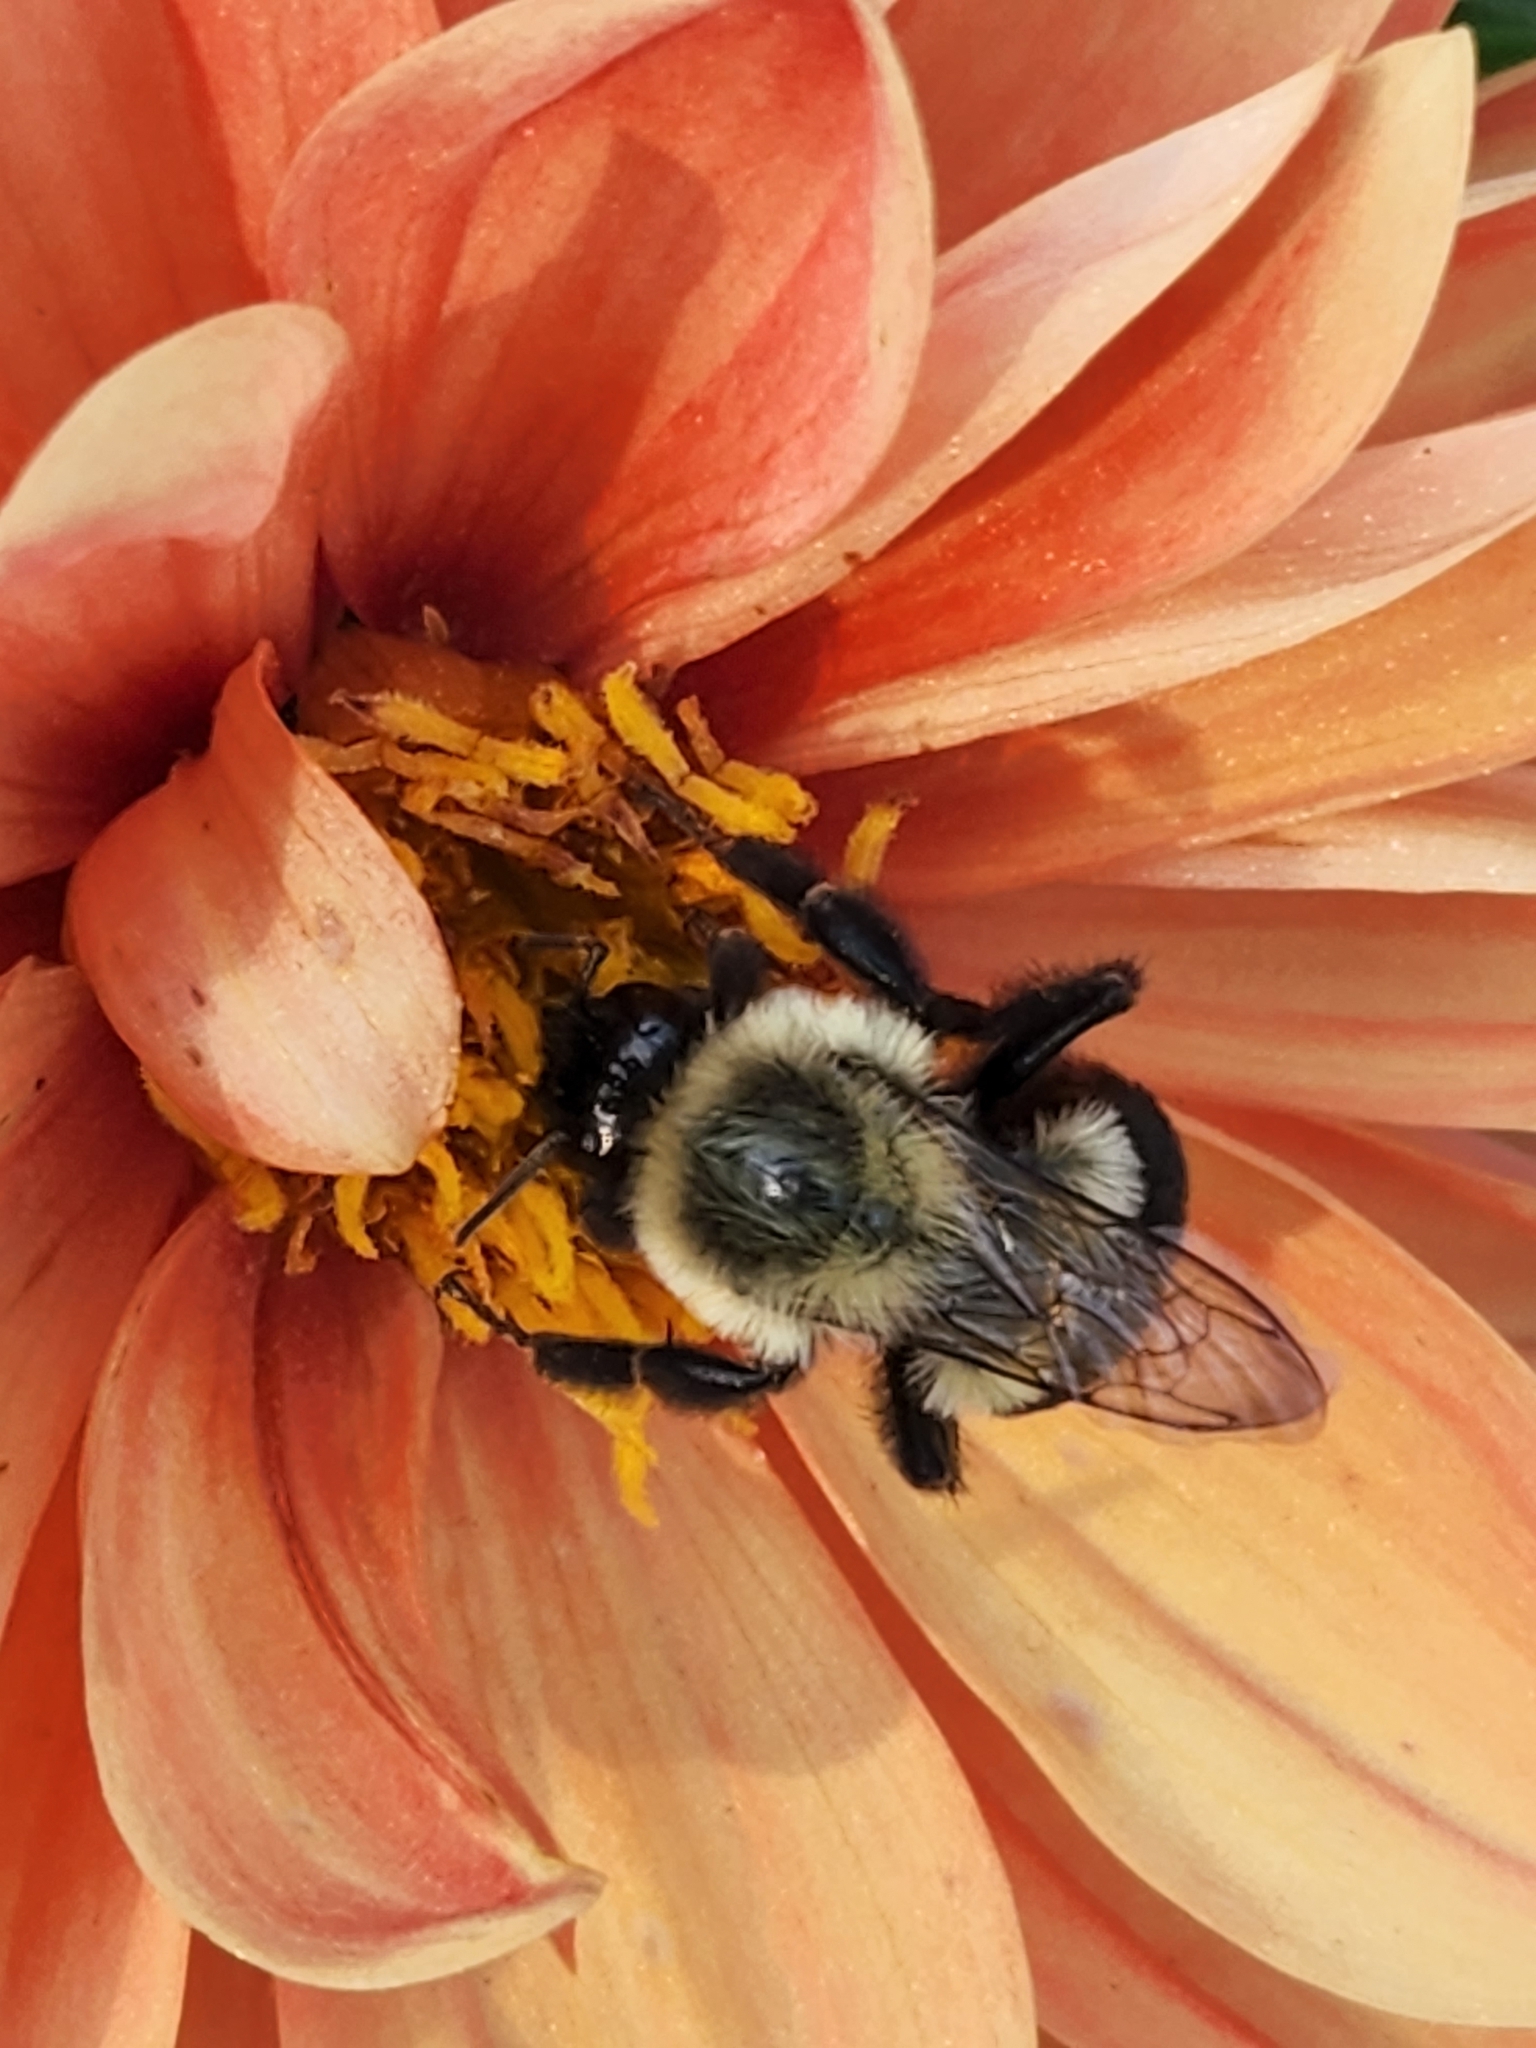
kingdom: Animalia
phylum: Arthropoda
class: Insecta
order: Hymenoptera
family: Apidae
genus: Bombus
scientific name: Bombus impatiens
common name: Common eastern bumble bee
